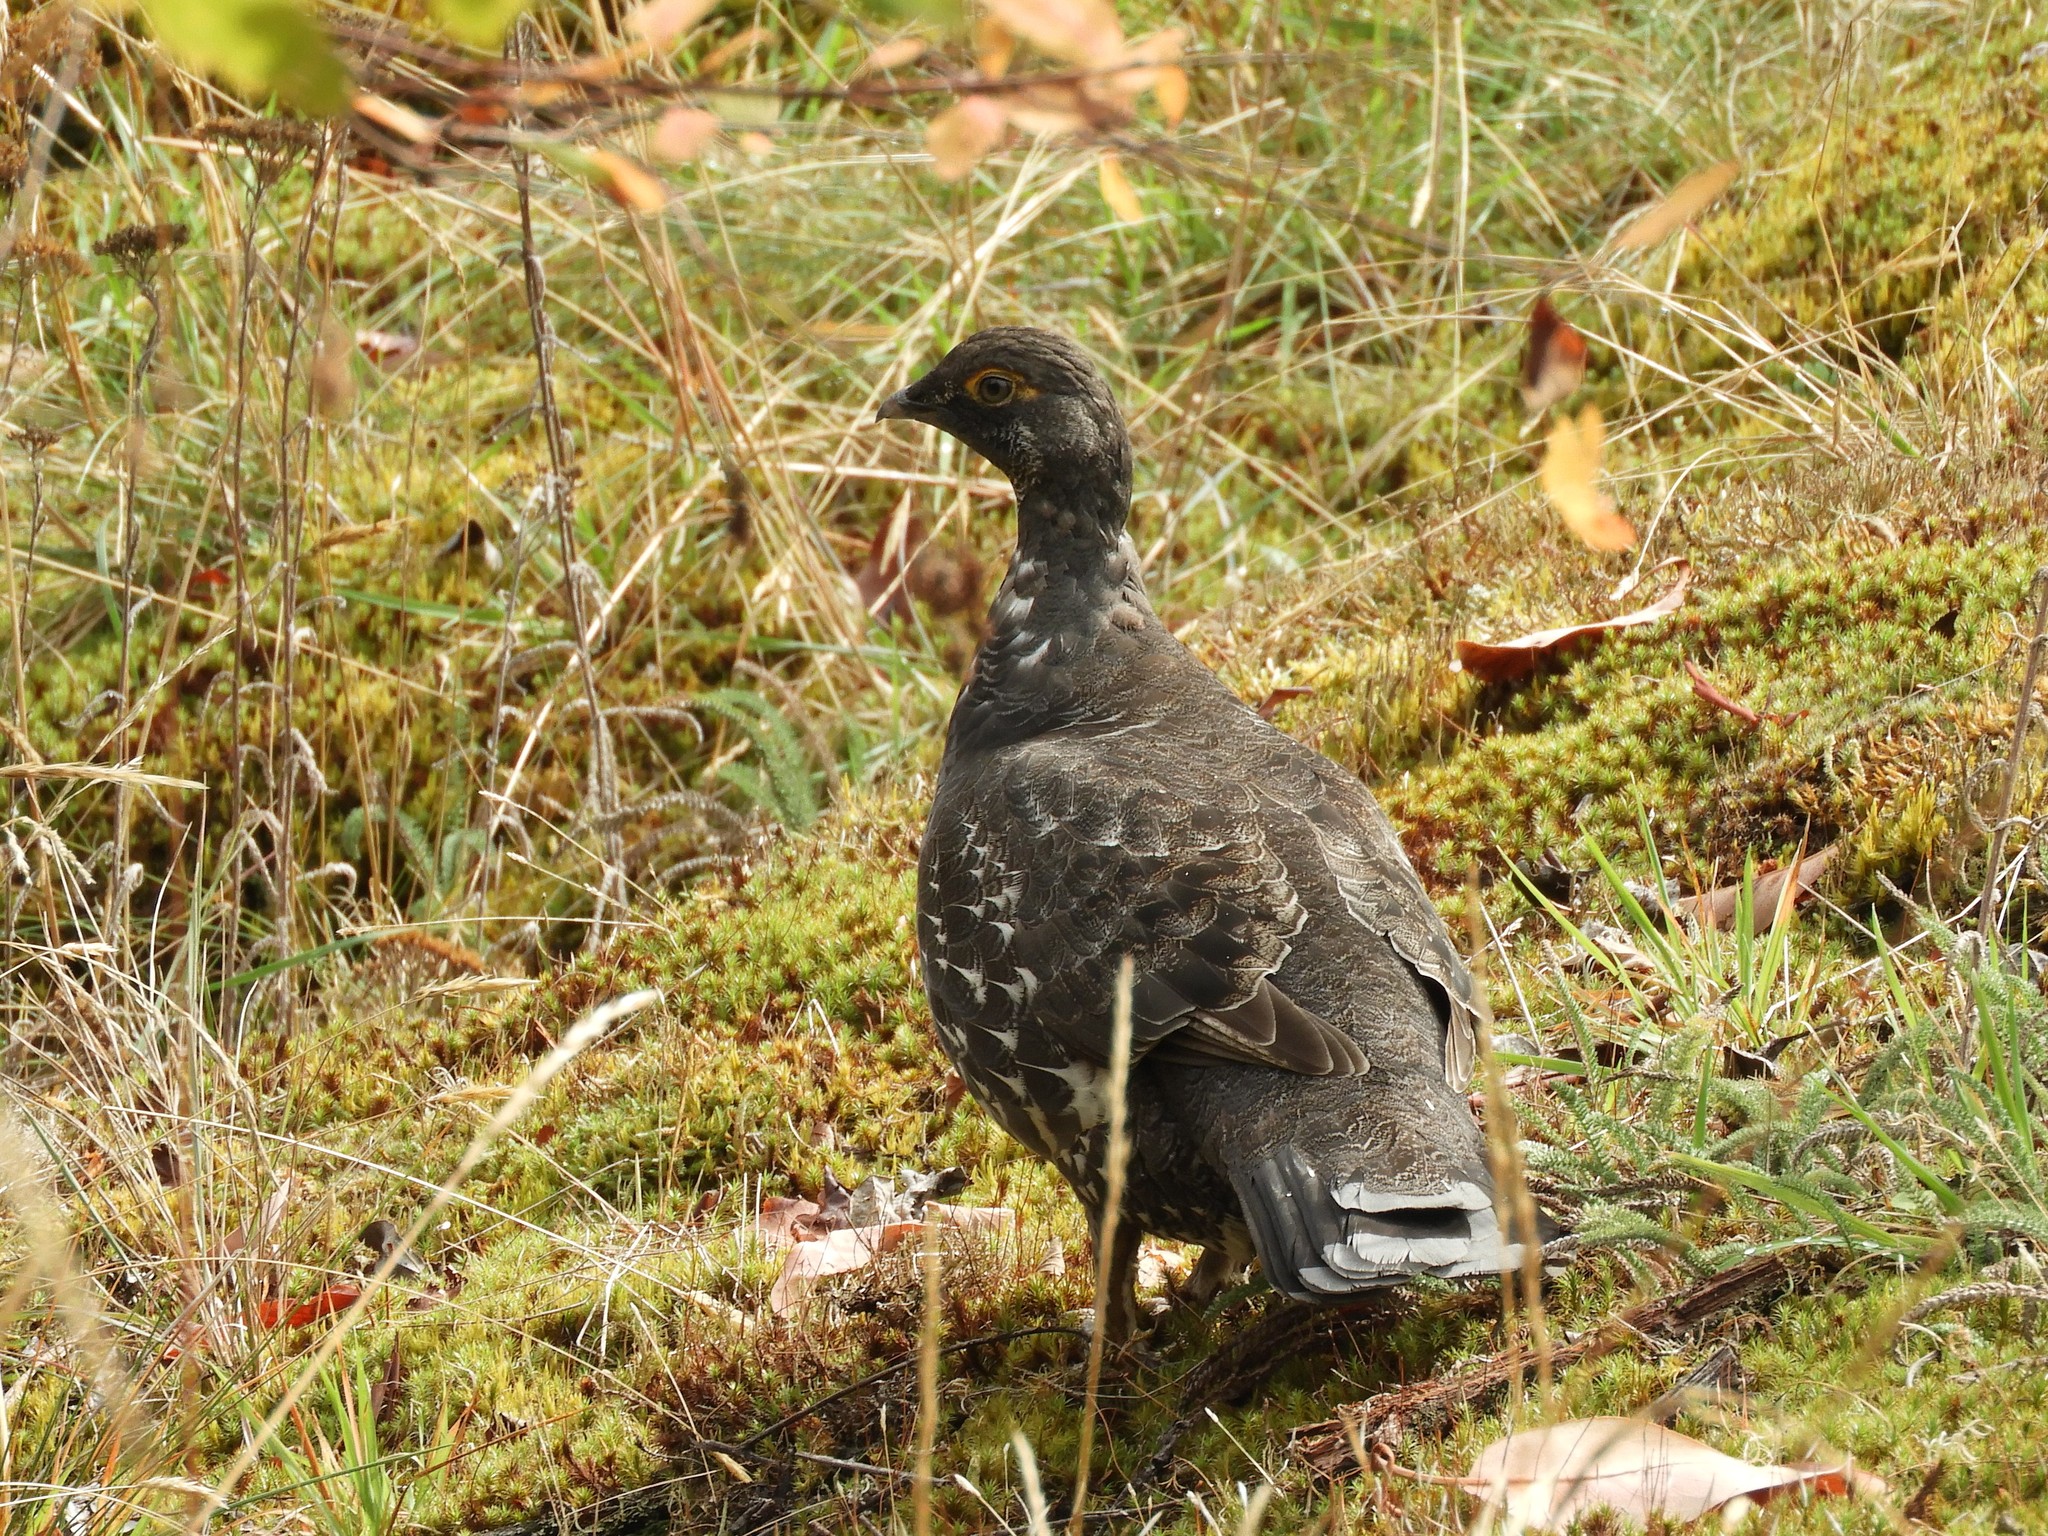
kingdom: Animalia
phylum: Chordata
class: Aves
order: Galliformes
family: Phasianidae
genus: Dendragapus
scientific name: Dendragapus fuliginosus
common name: Sooty grouse
